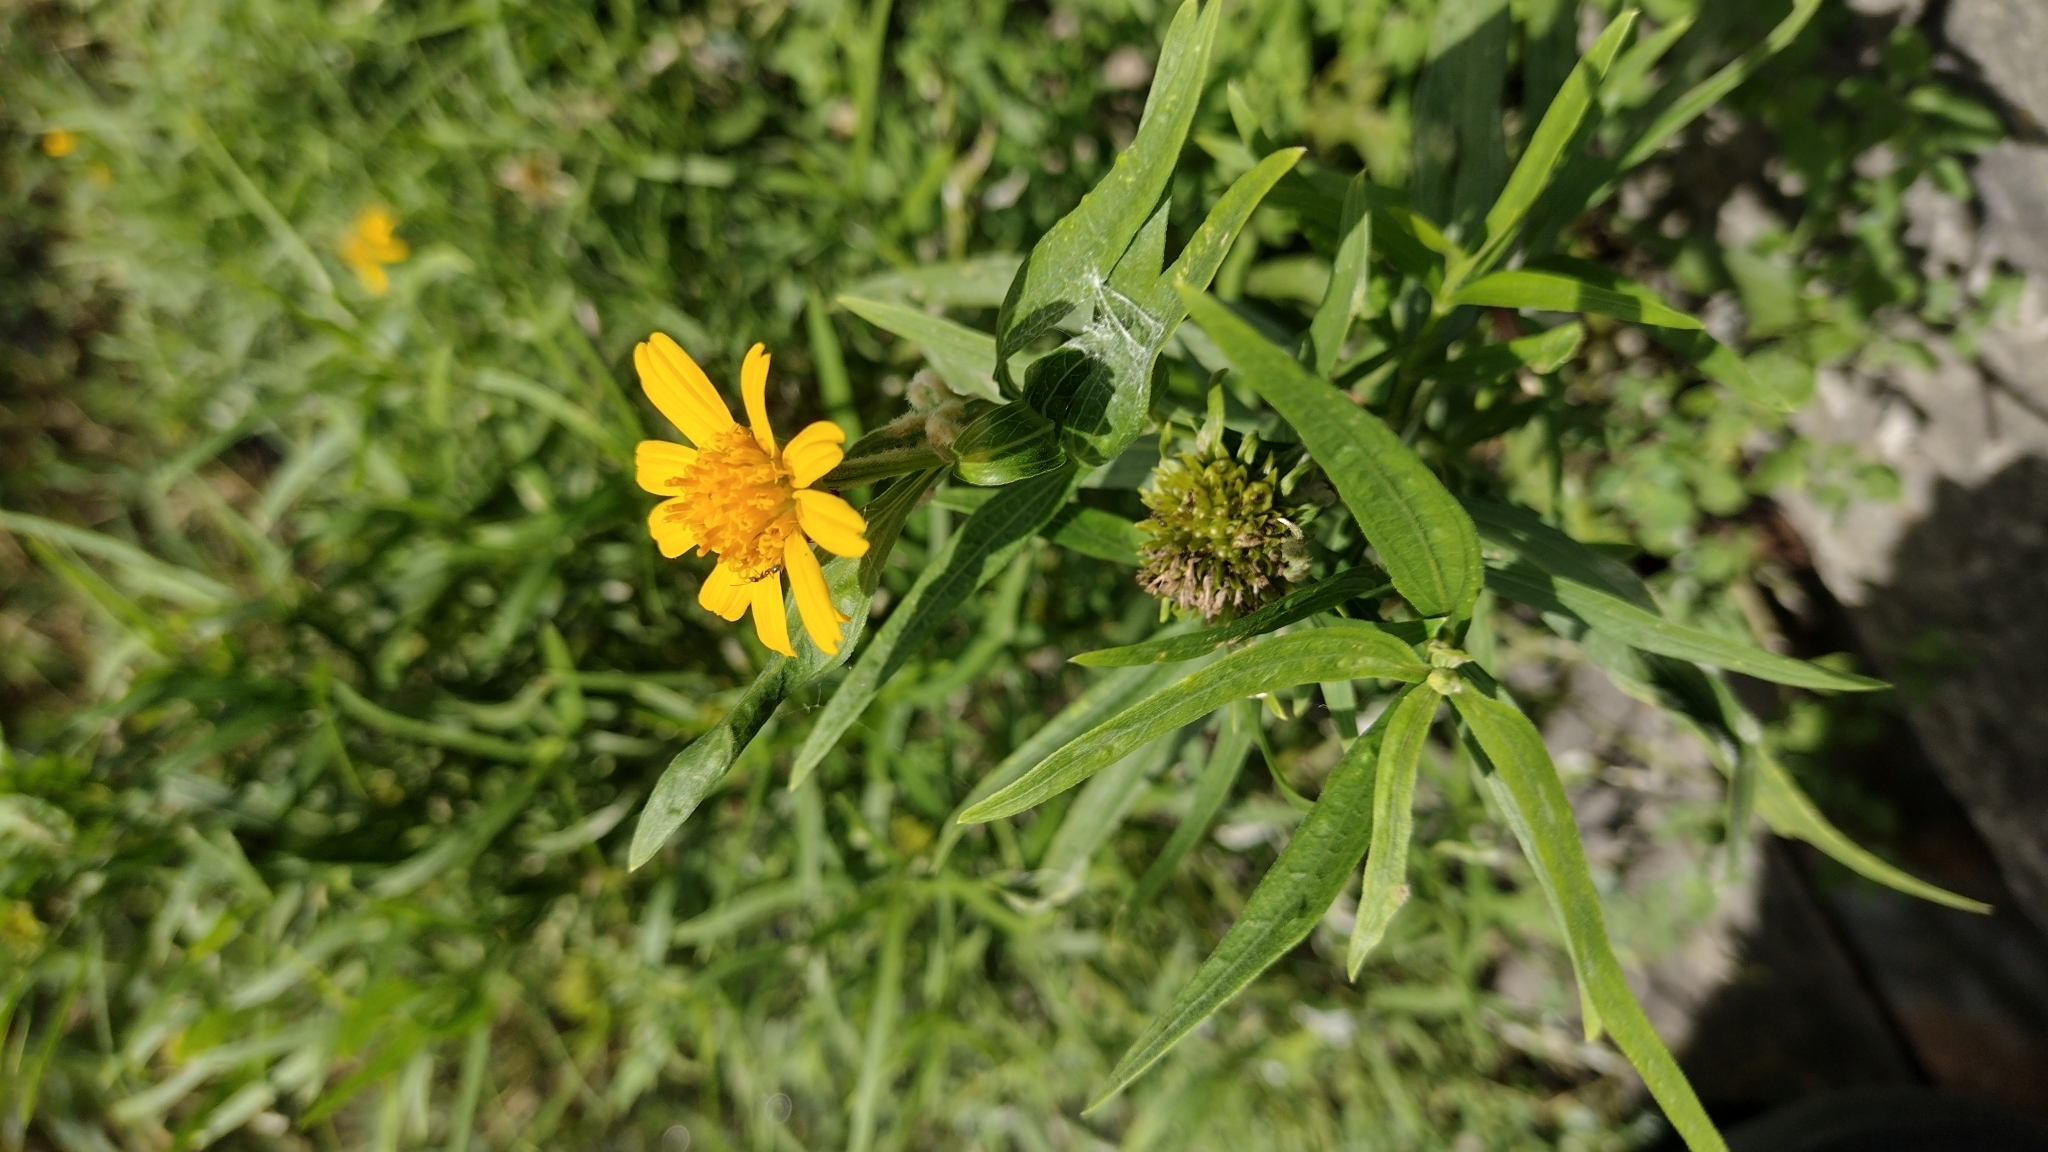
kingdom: Plantae
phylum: Tracheophyta
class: Magnoliopsida
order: Asterales
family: Asteraceae
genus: Pascalia
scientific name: Pascalia glauca
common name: Beach creeping oxeye
